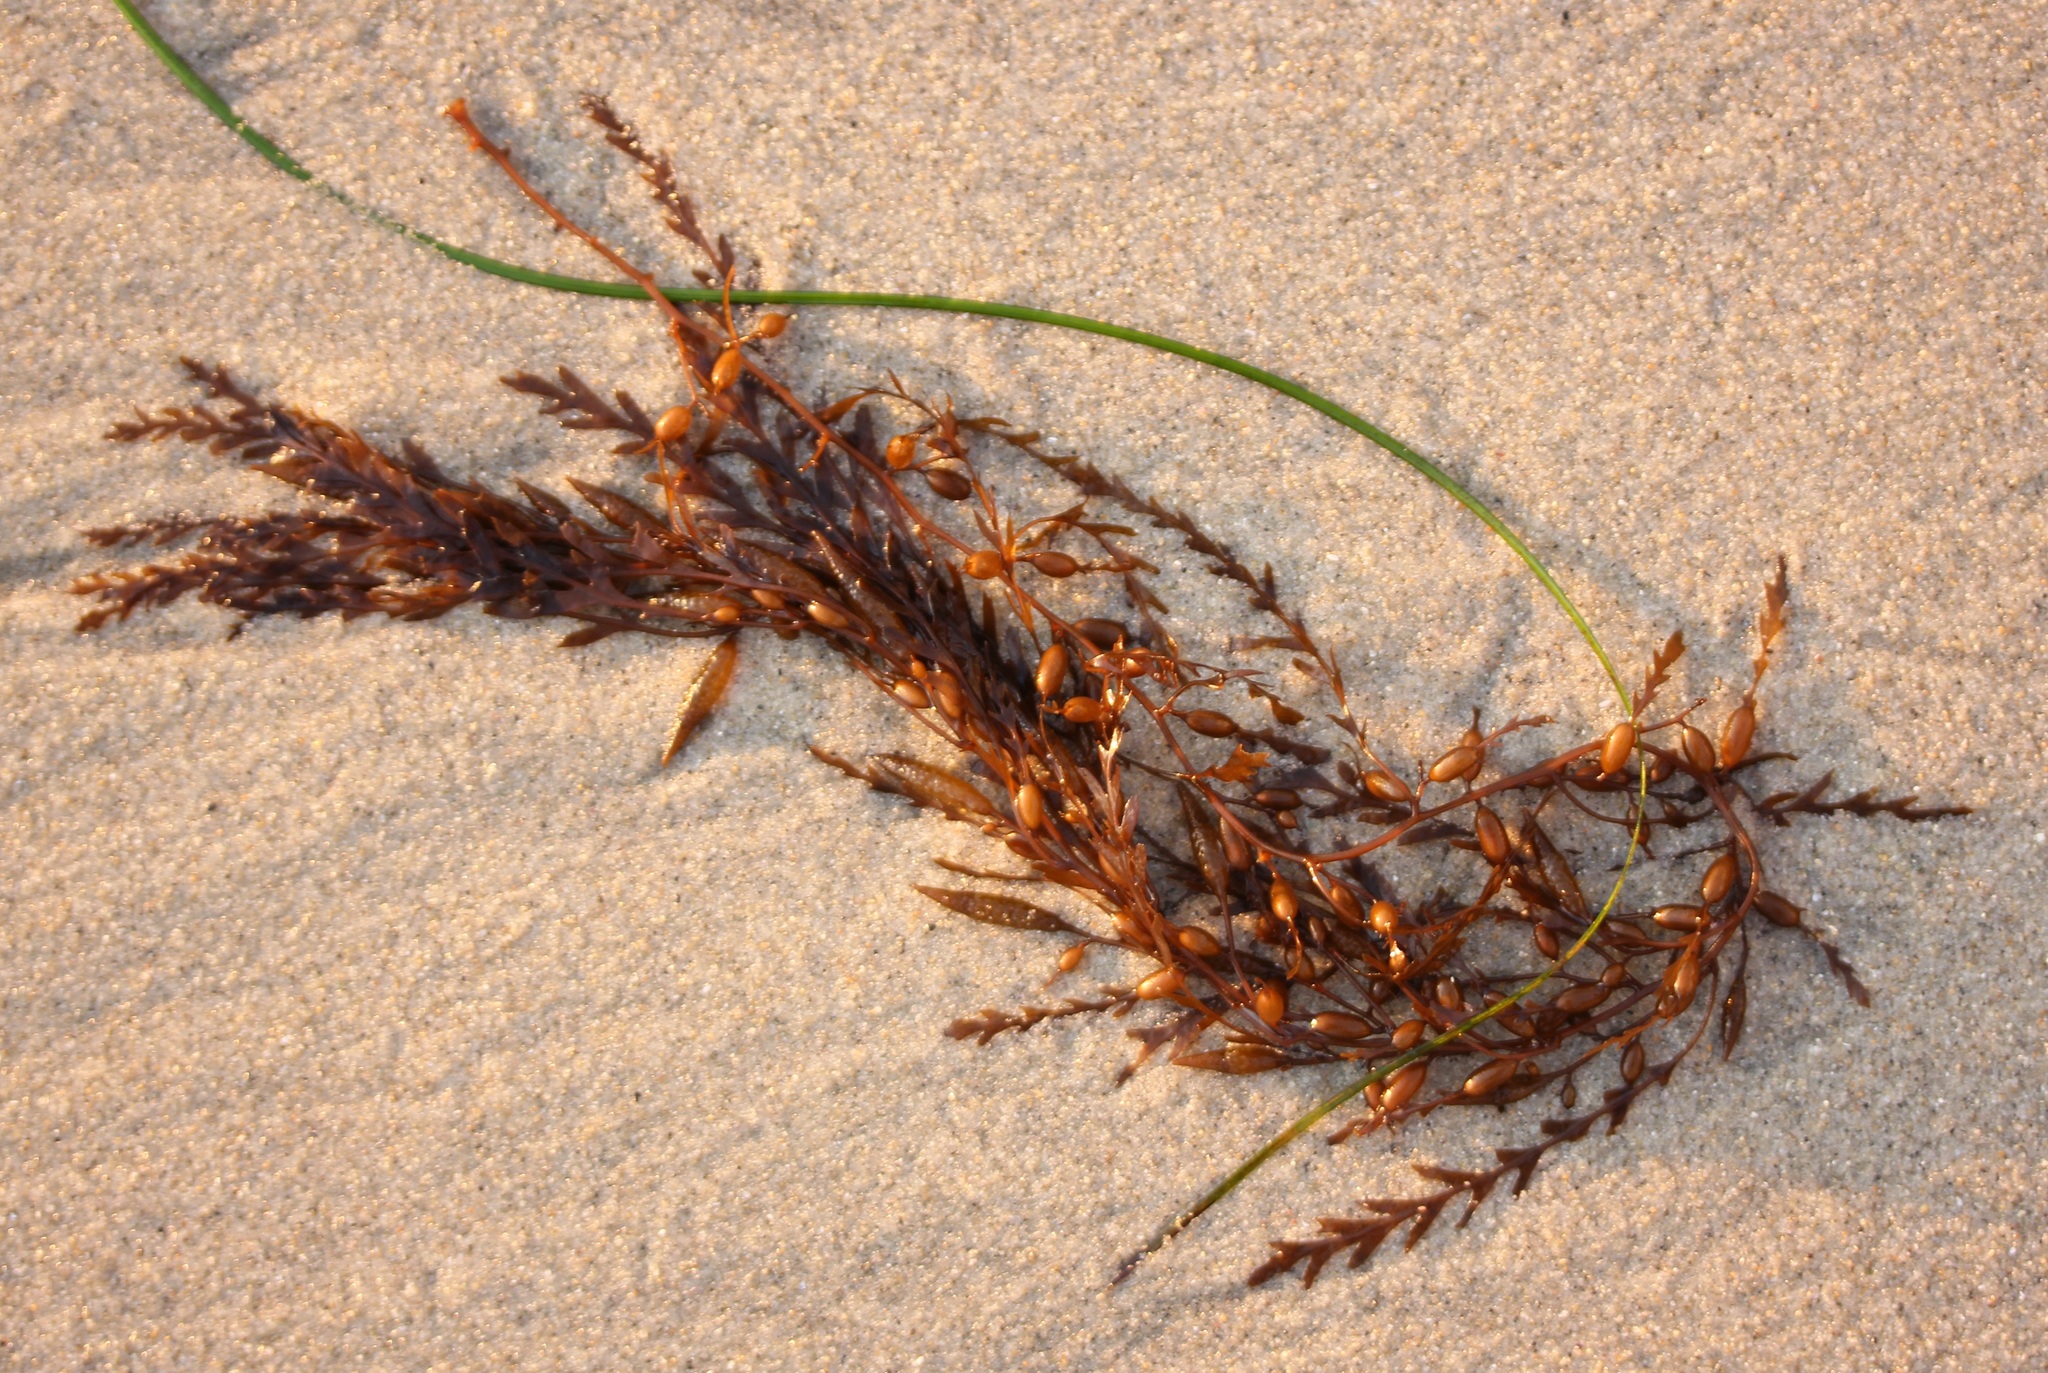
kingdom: Chromista
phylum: Ochrophyta
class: Phaeophyceae
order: Fucales
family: Sargassaceae
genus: Sargassum
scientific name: Sargassum horneri
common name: Devil weed
